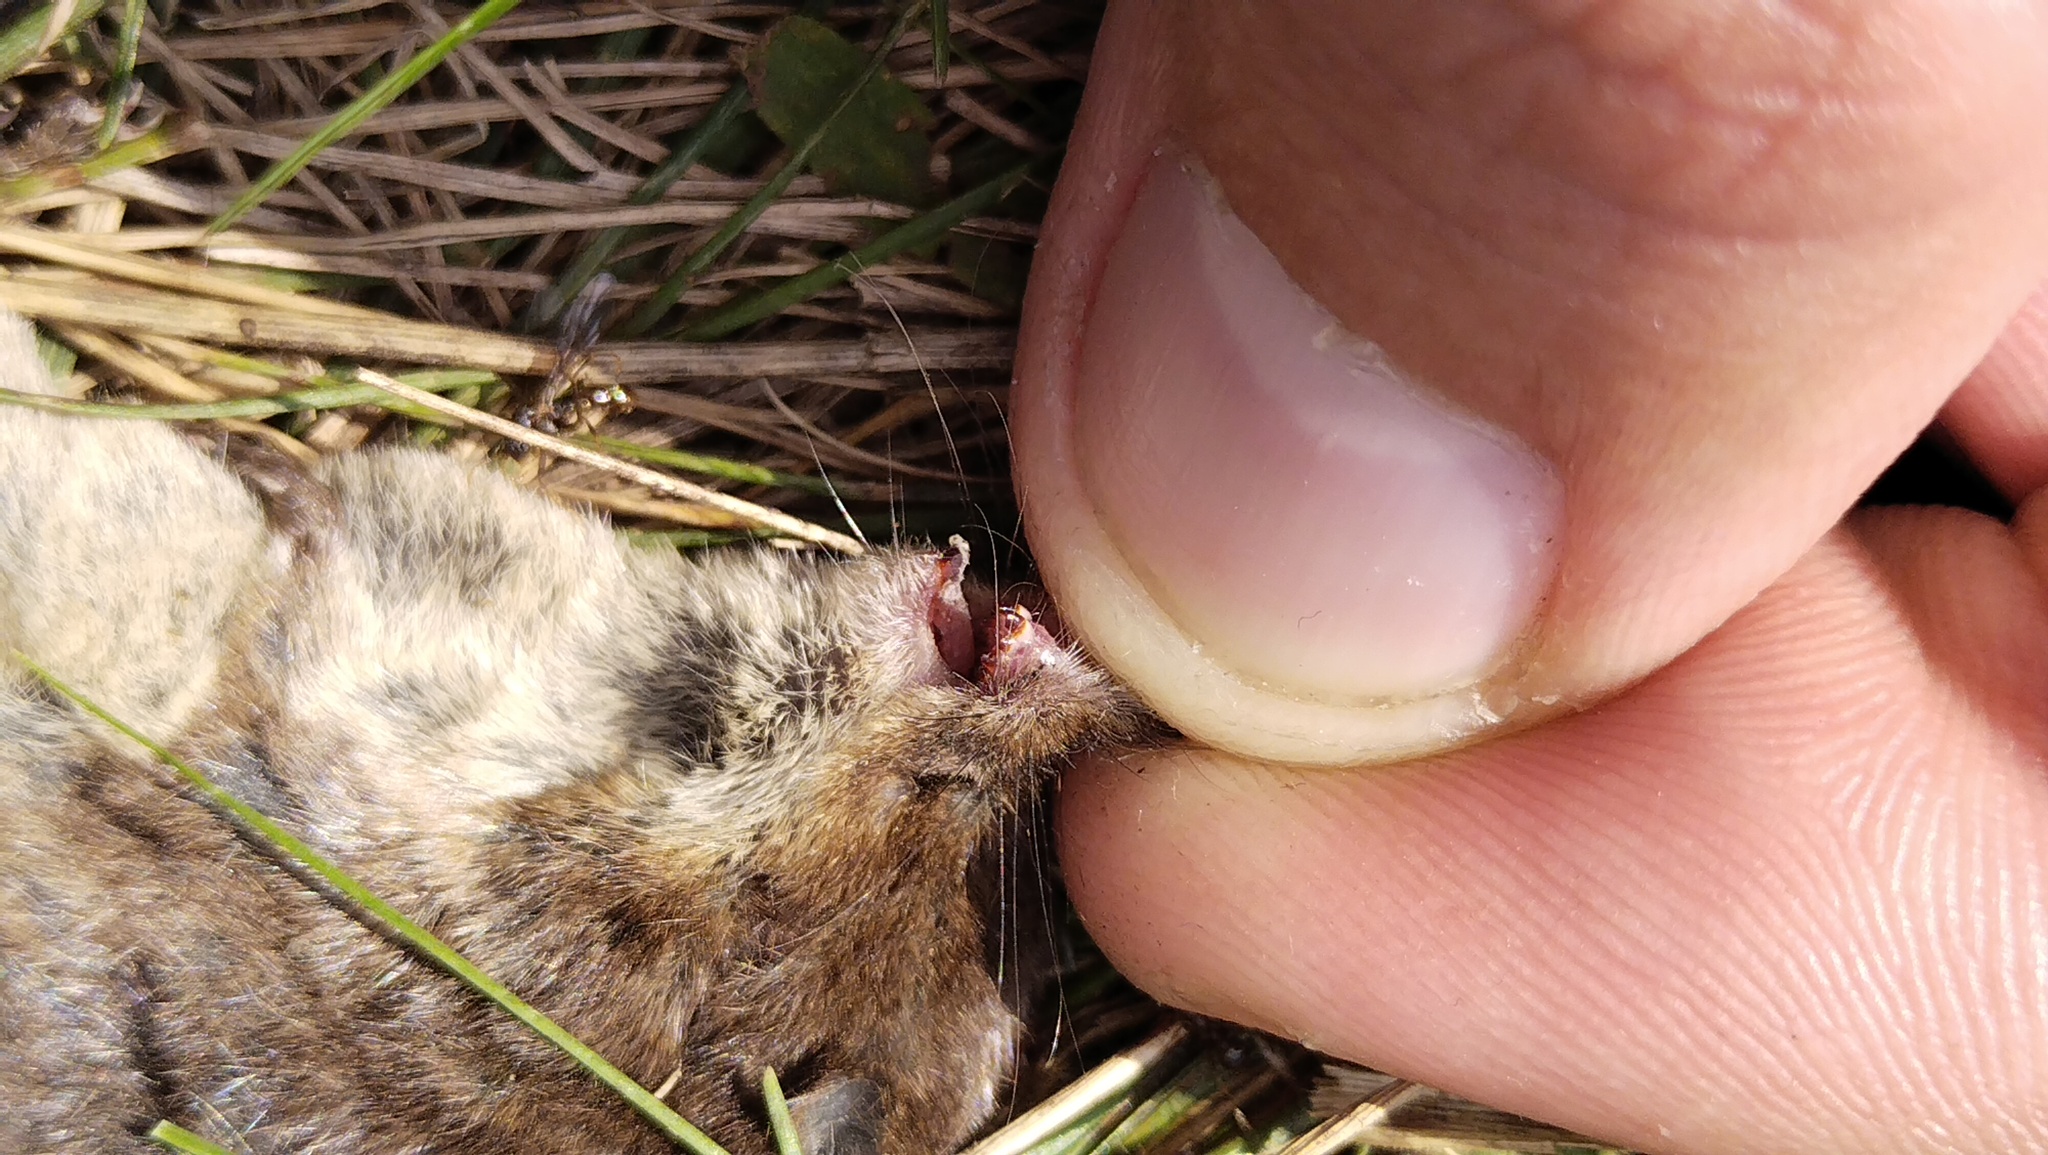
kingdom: Animalia
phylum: Chordata
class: Mammalia
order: Soricomorpha
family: Soricidae
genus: Sorex
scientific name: Sorex araneus
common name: Common shrew
